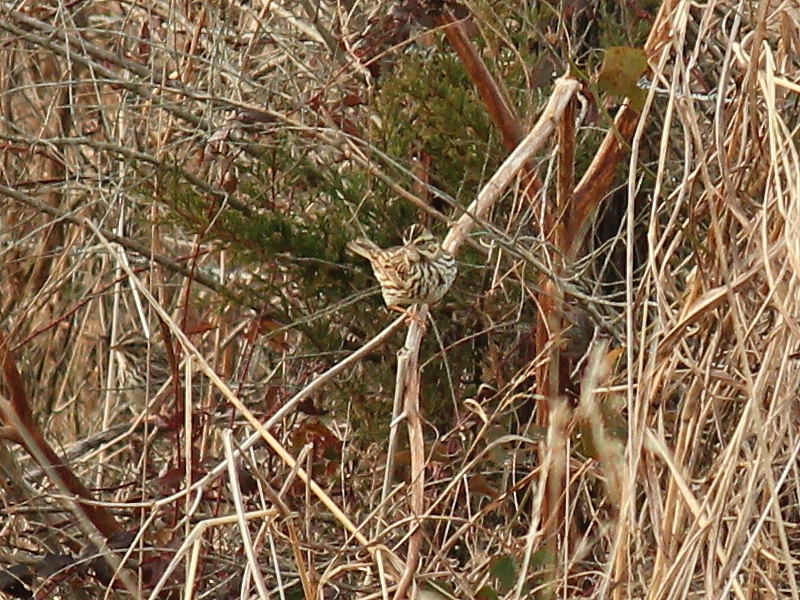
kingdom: Animalia
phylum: Chordata
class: Aves
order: Passeriformes
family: Passerellidae
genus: Melospiza
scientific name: Melospiza melodia
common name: Song sparrow
